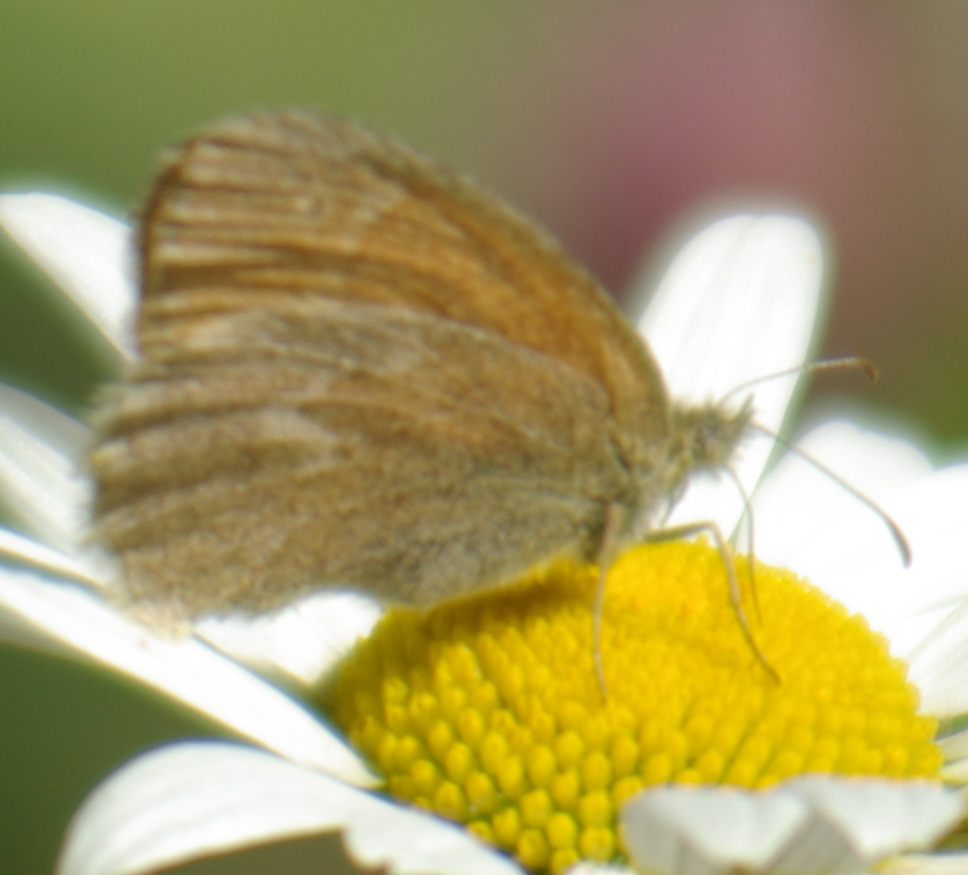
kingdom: Animalia
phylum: Arthropoda
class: Insecta
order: Lepidoptera
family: Nymphalidae
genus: Coenonympha
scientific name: Coenonympha california
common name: Common ringlet
